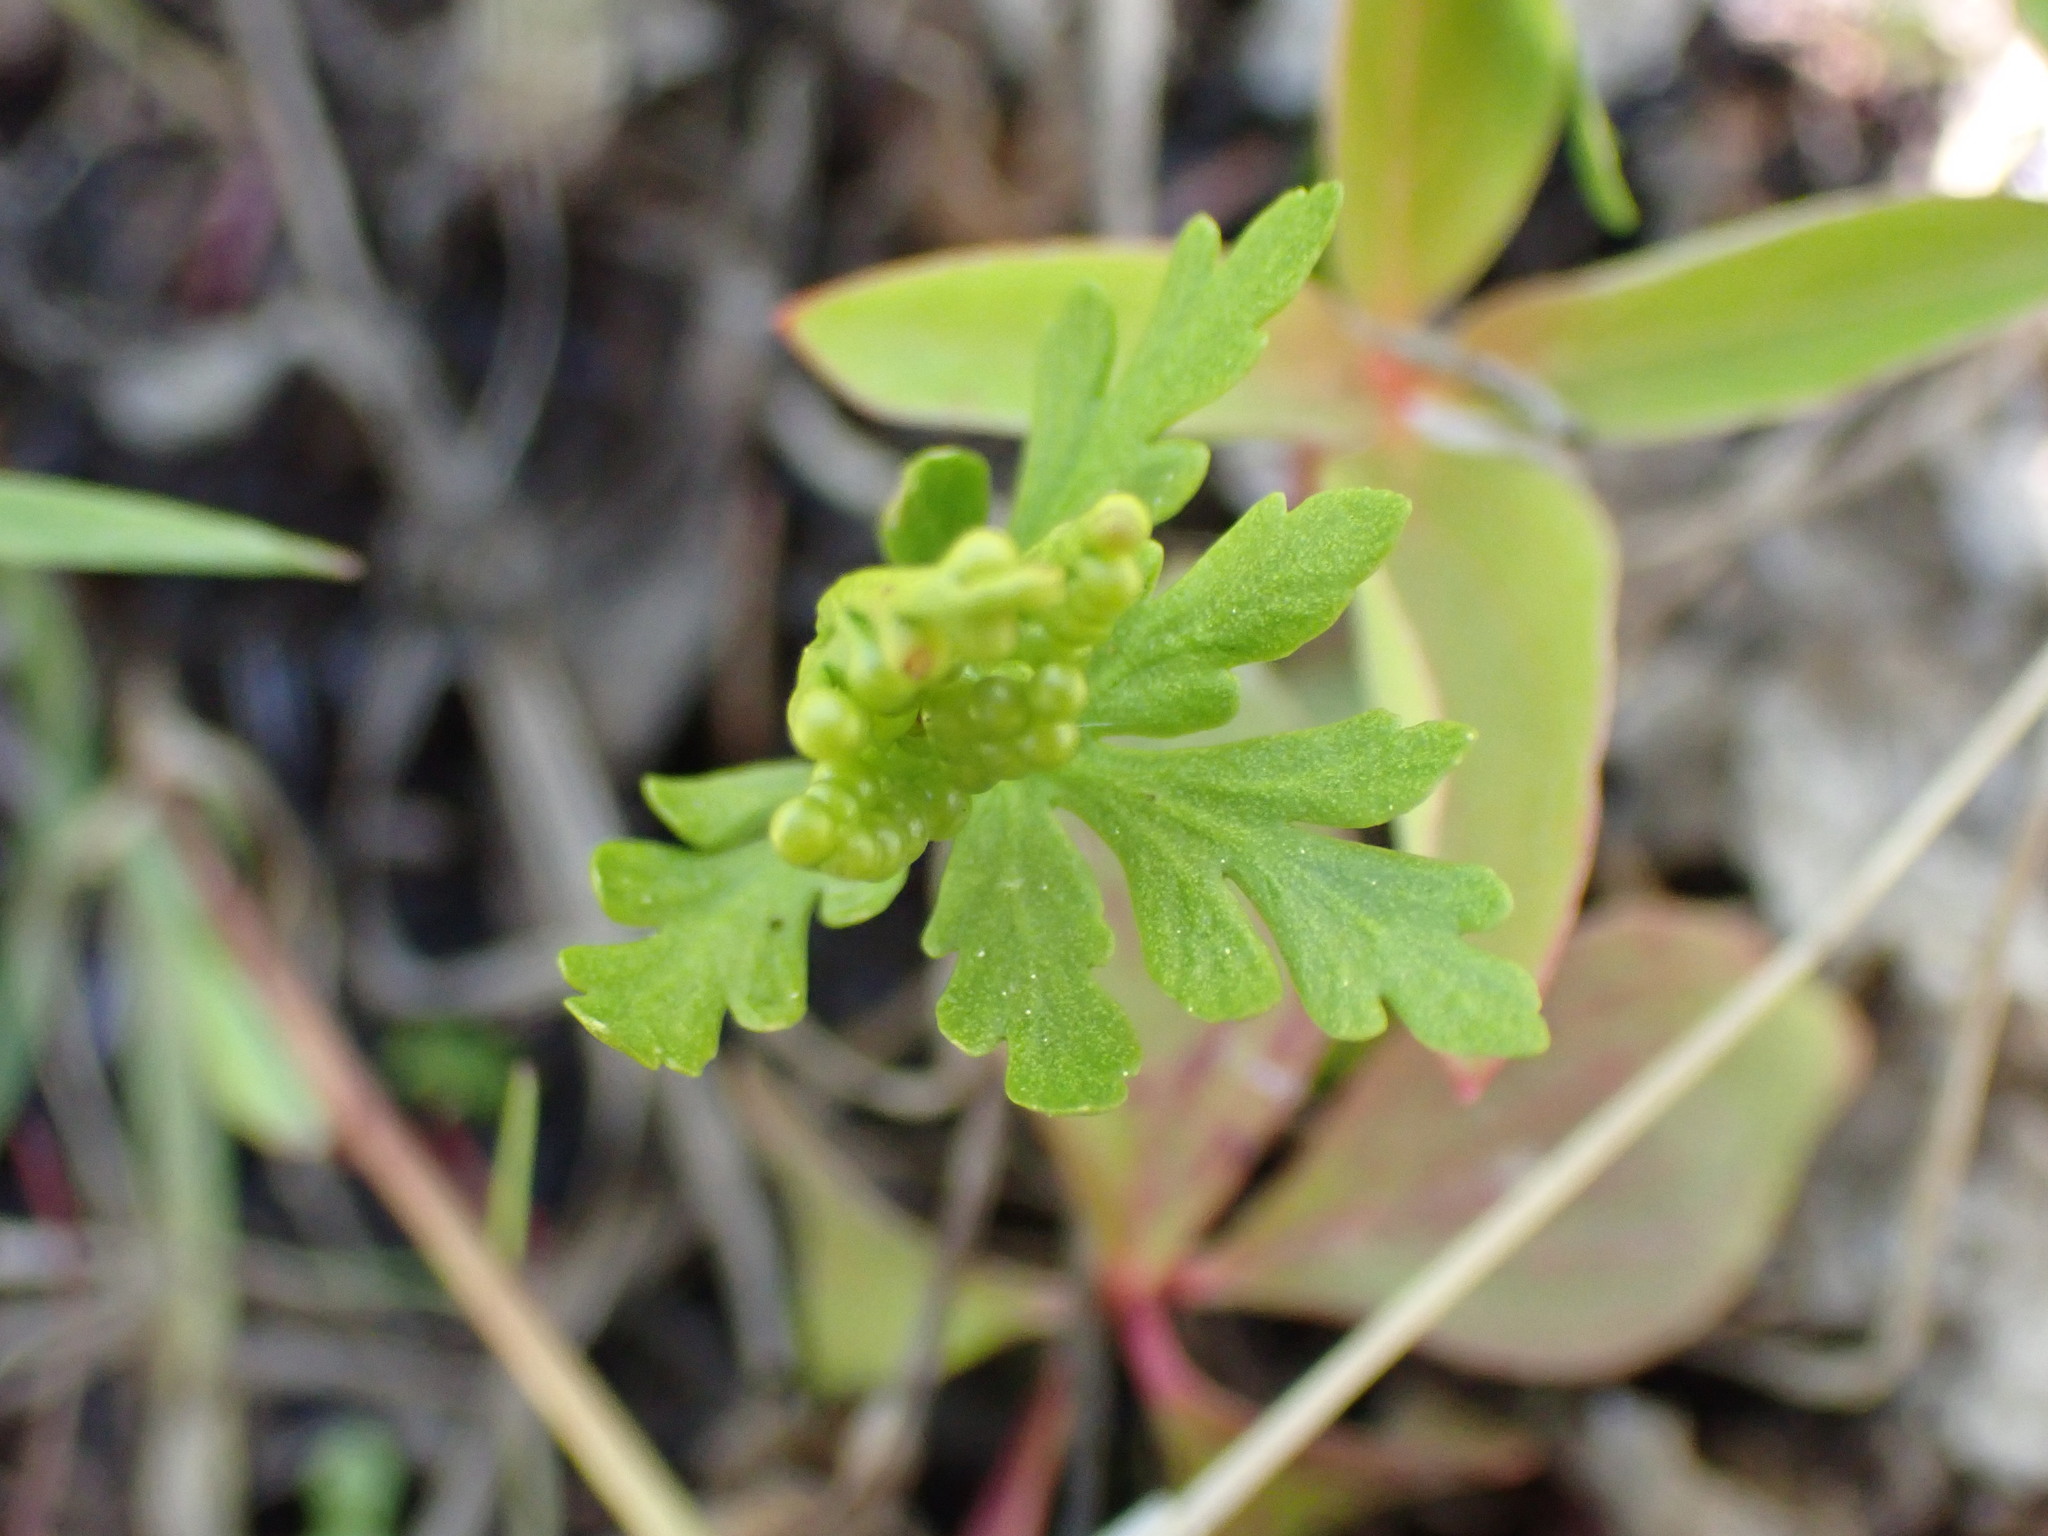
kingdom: Plantae
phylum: Tracheophyta
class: Polypodiopsida
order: Ophioglossales
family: Ophioglossaceae
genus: Botrychium
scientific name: Botrychium lanceolatum
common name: Lance-leaved moonwort
